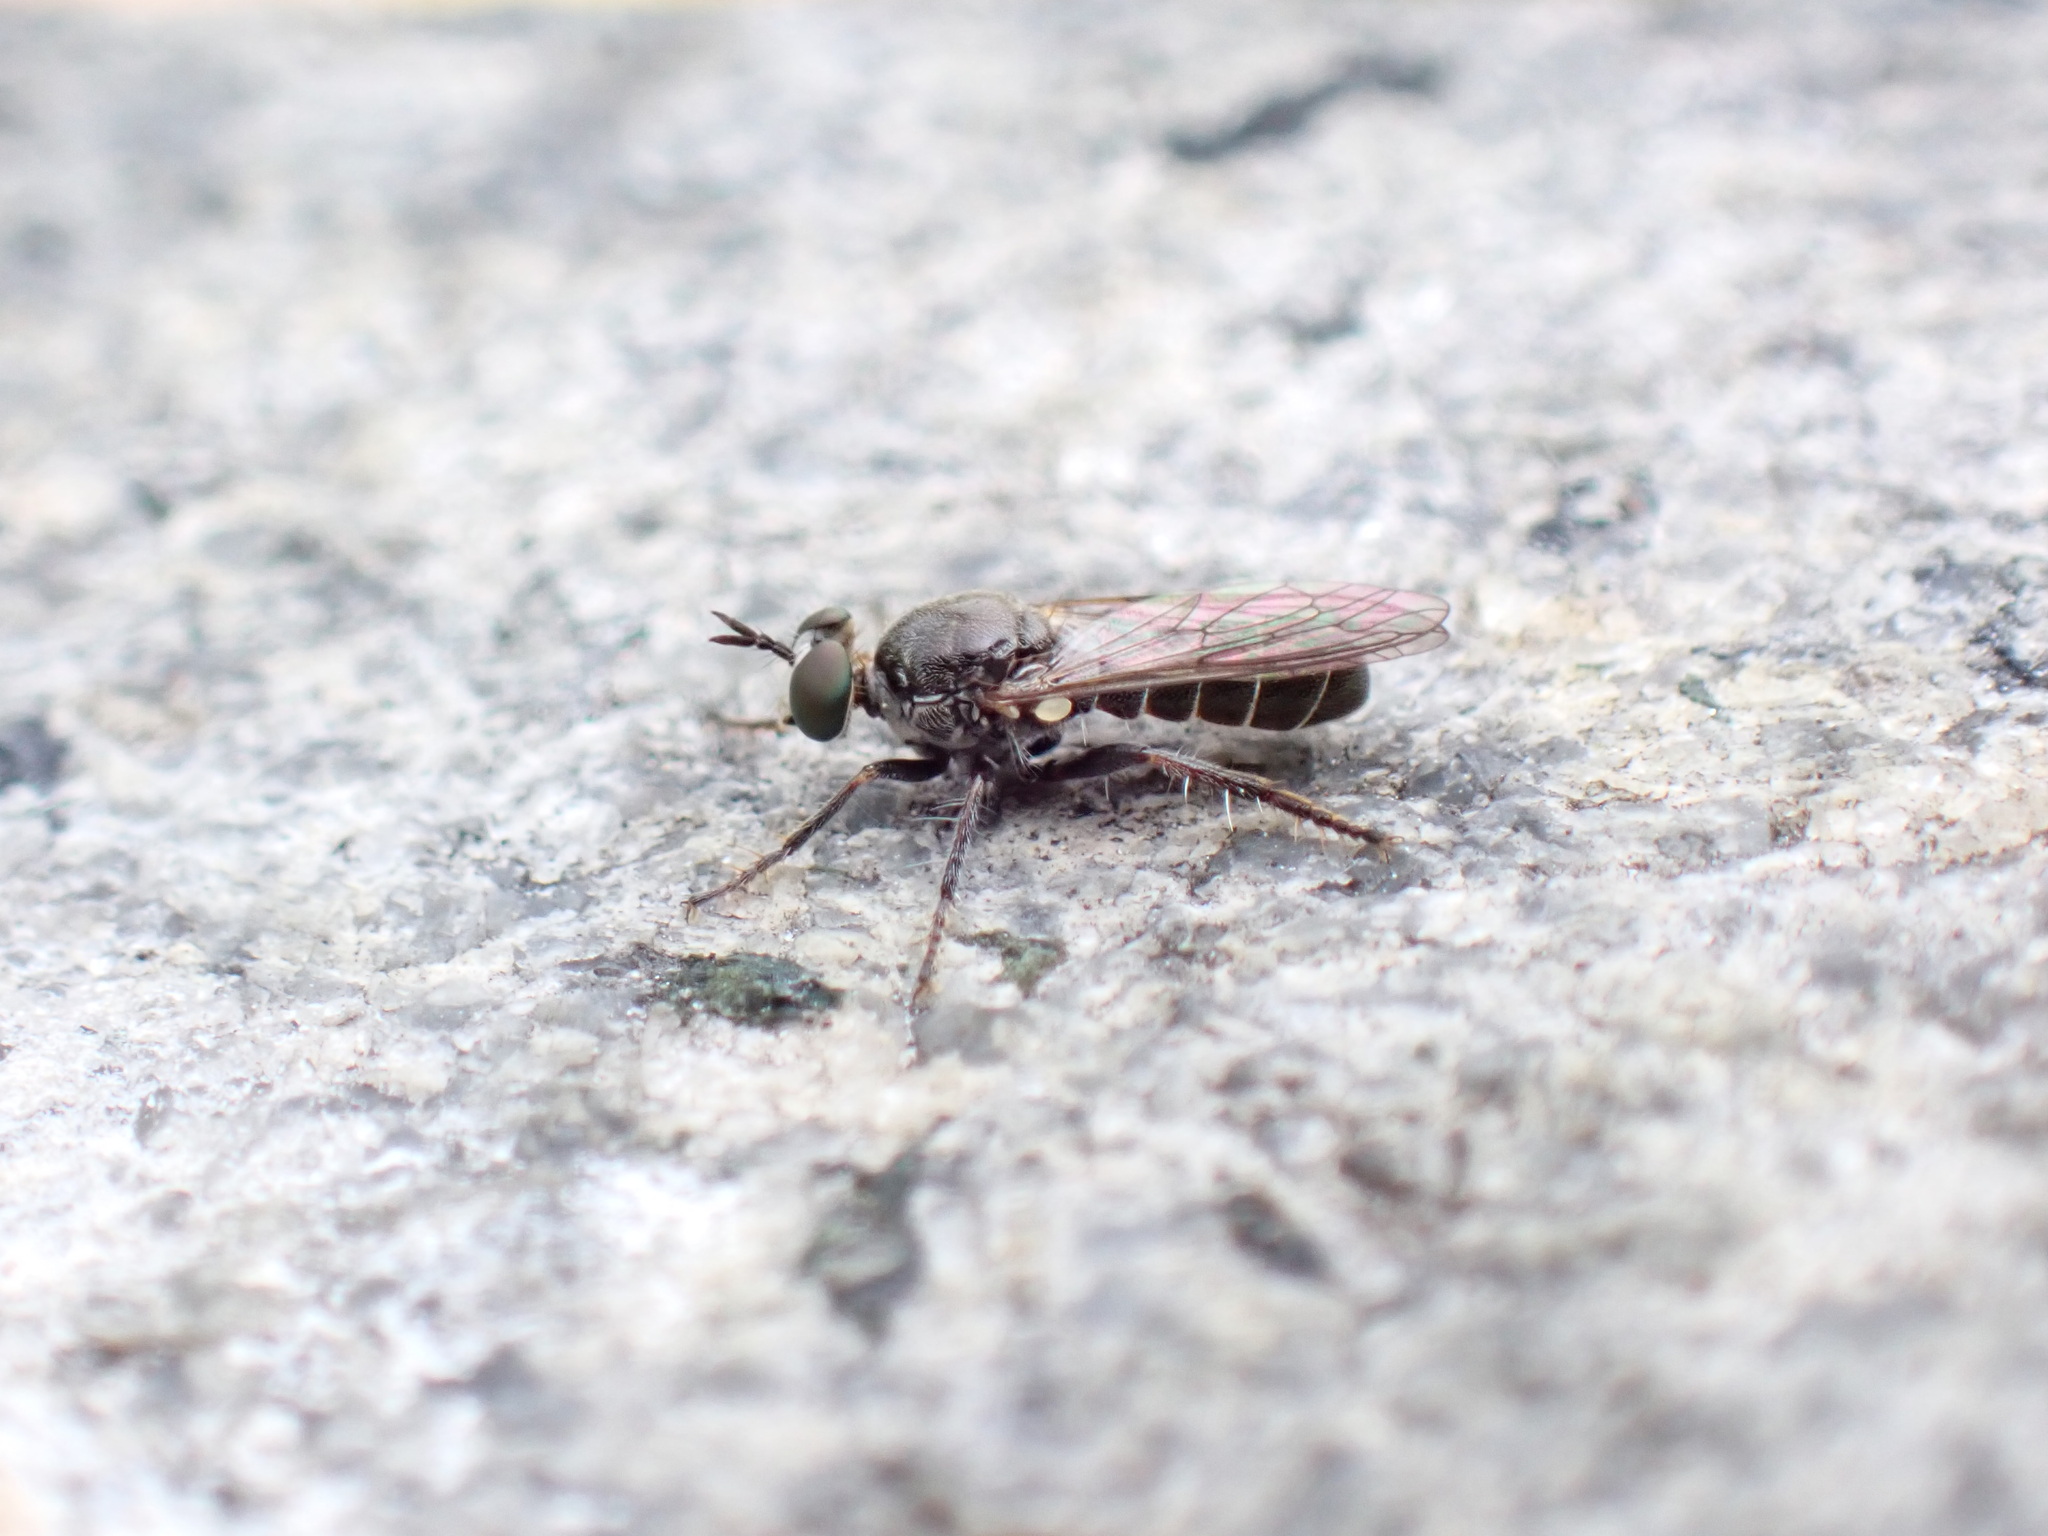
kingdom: Animalia
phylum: Arthropoda
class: Insecta
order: Diptera
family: Asilidae
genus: Atomosia
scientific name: Atomosia puella
